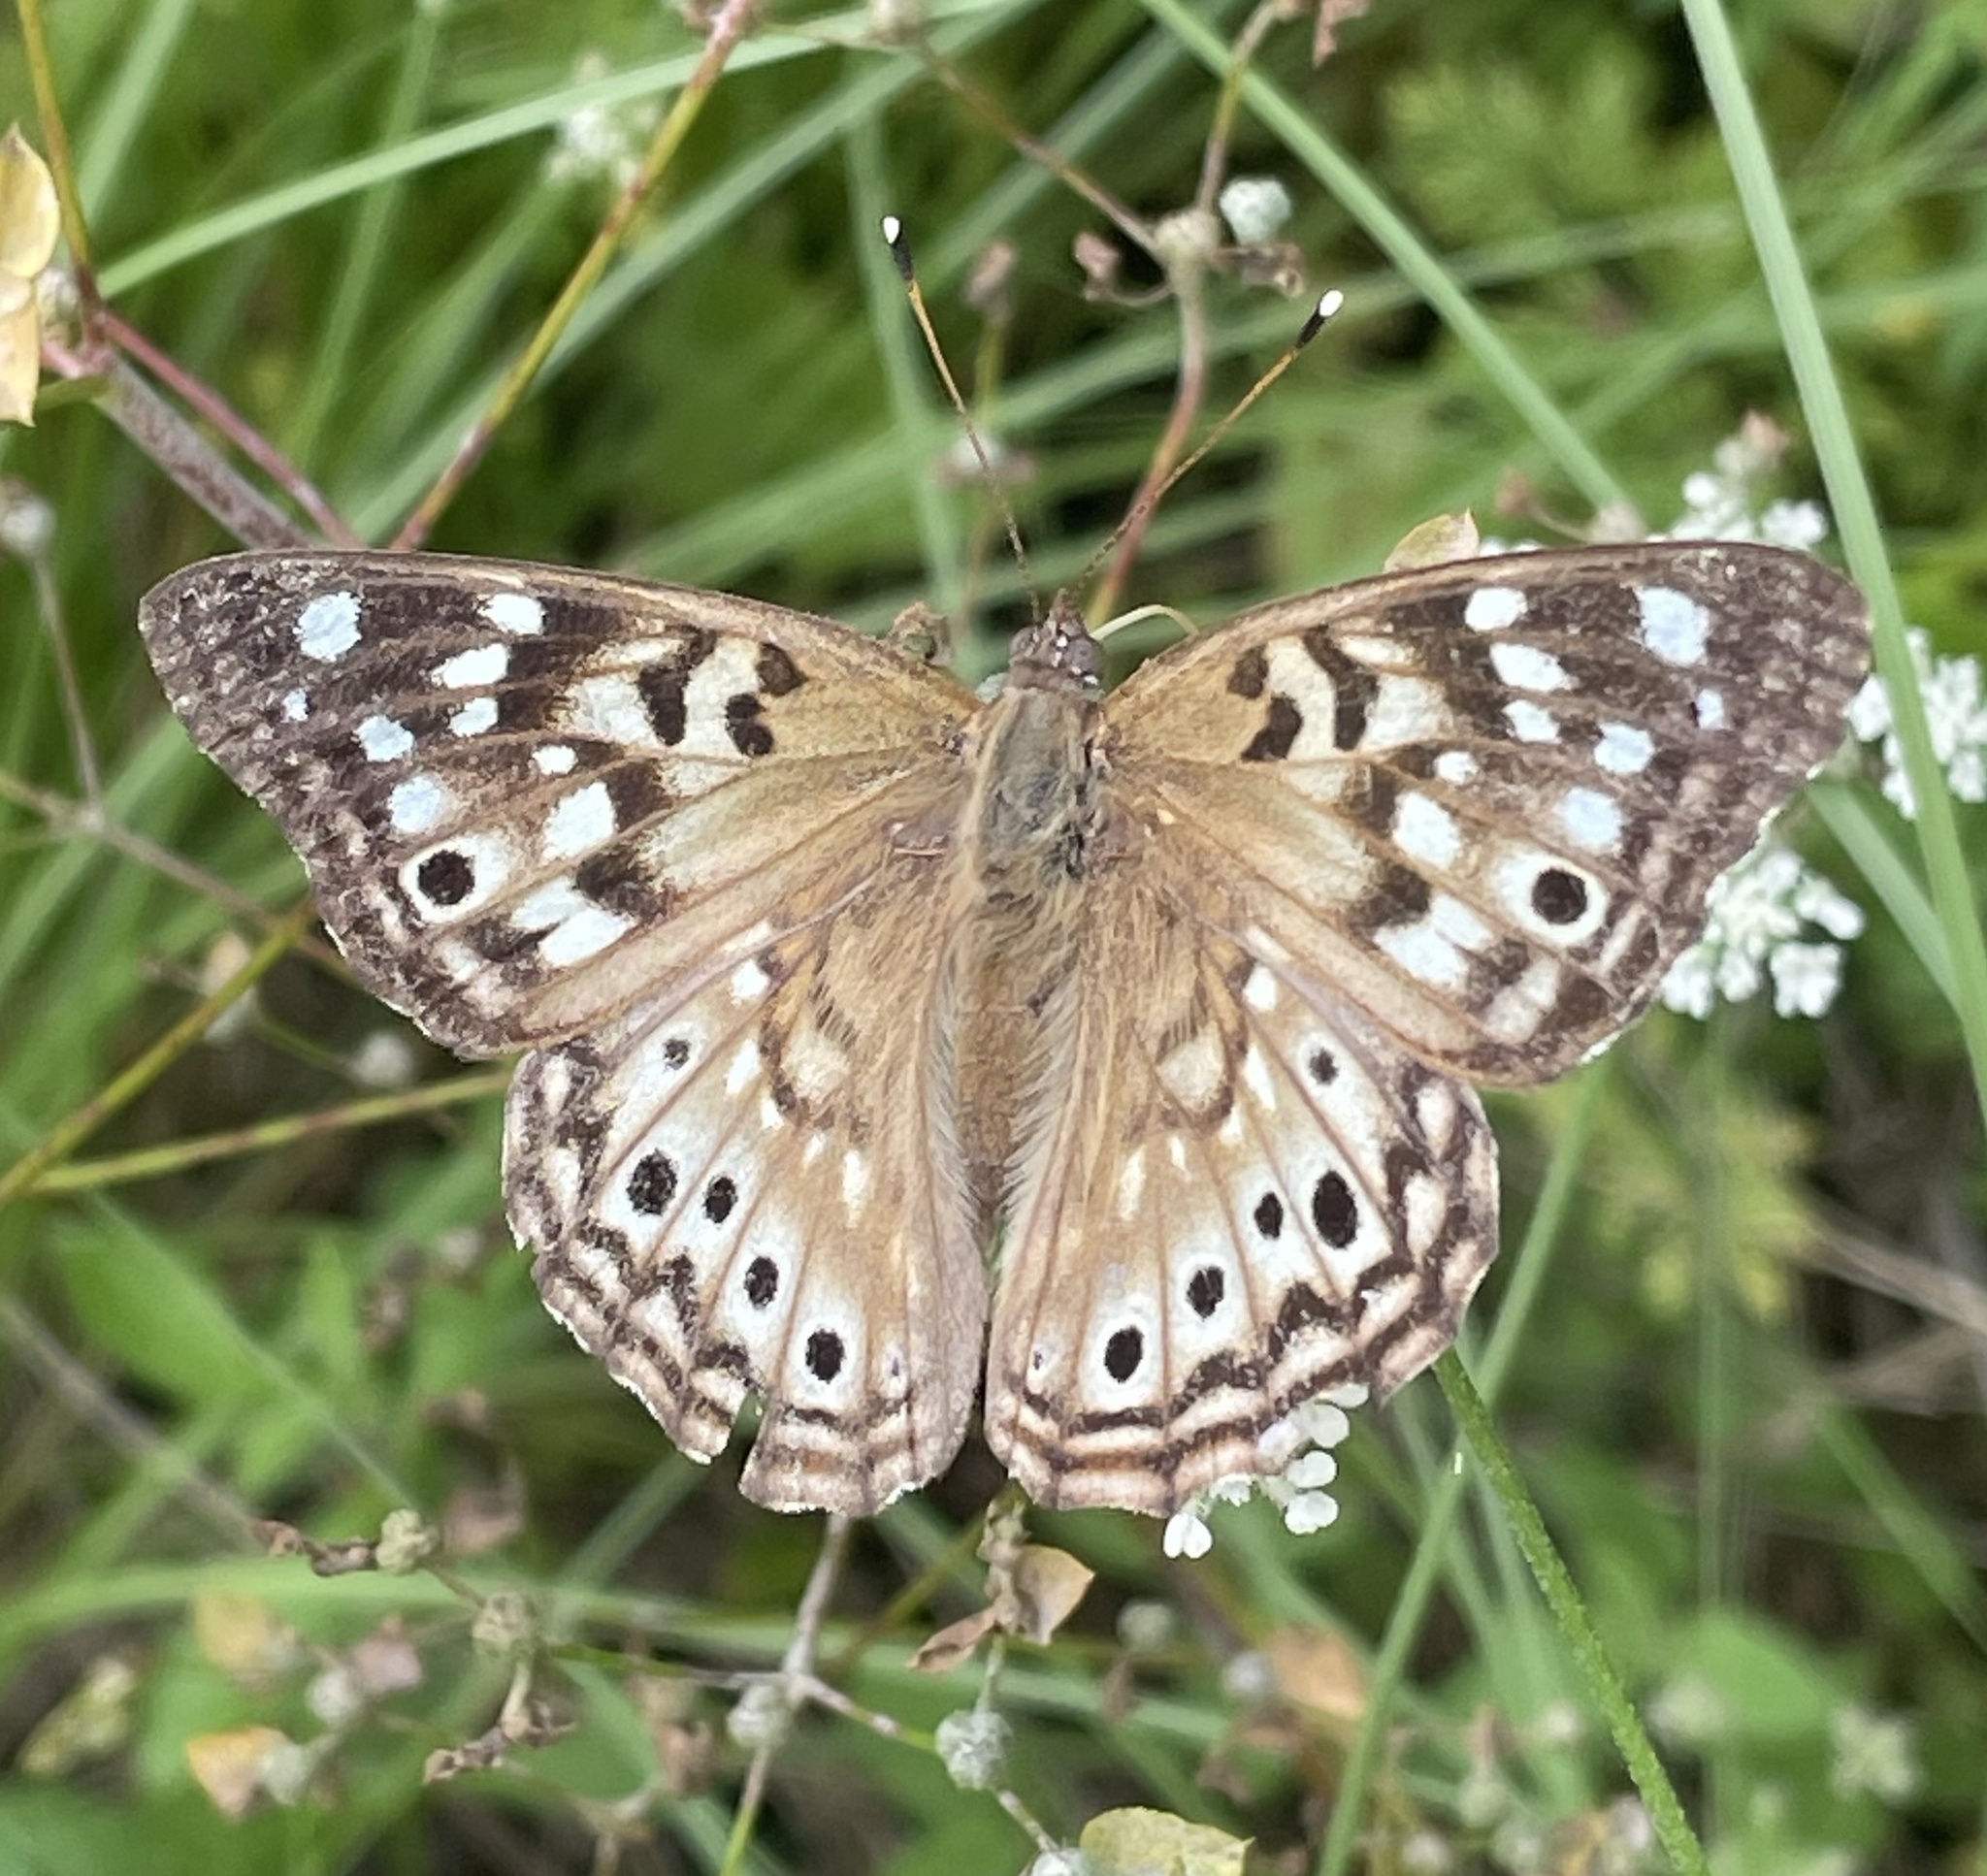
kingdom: Animalia
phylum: Arthropoda
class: Insecta
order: Lepidoptera
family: Nymphalidae
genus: Asterocampa
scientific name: Asterocampa celtis
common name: Hackberry emperor
